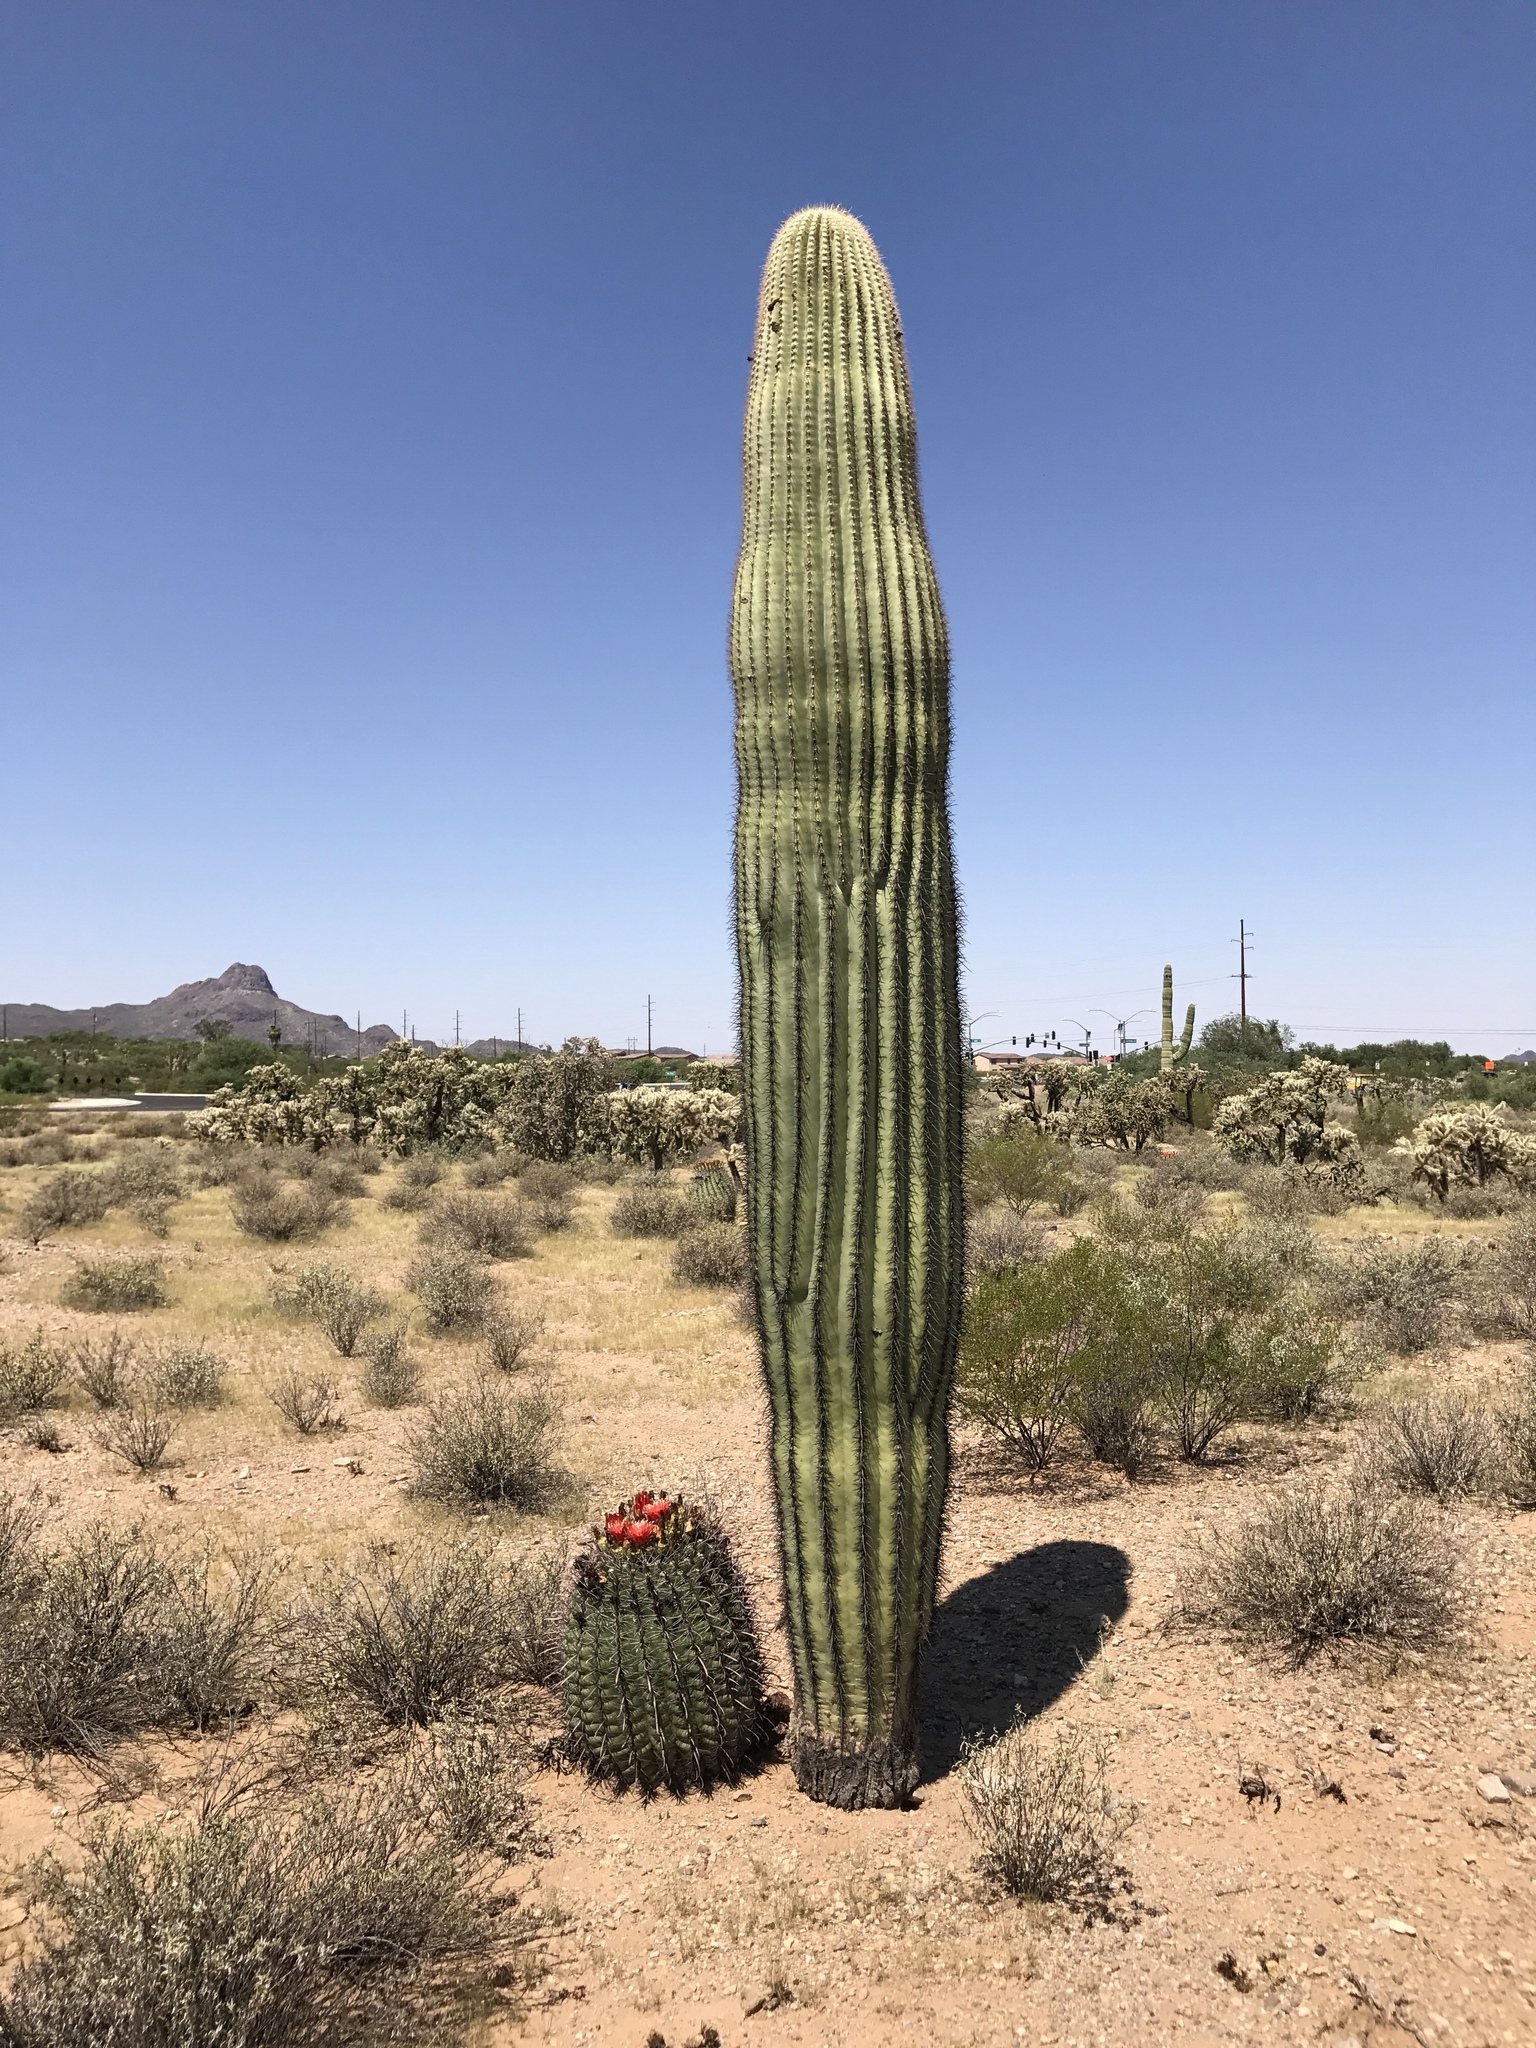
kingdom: Plantae
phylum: Tracheophyta
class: Magnoliopsida
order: Caryophyllales
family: Cactaceae
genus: Ferocactus
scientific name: Ferocactus wislizeni
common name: Candy barrel cactus
